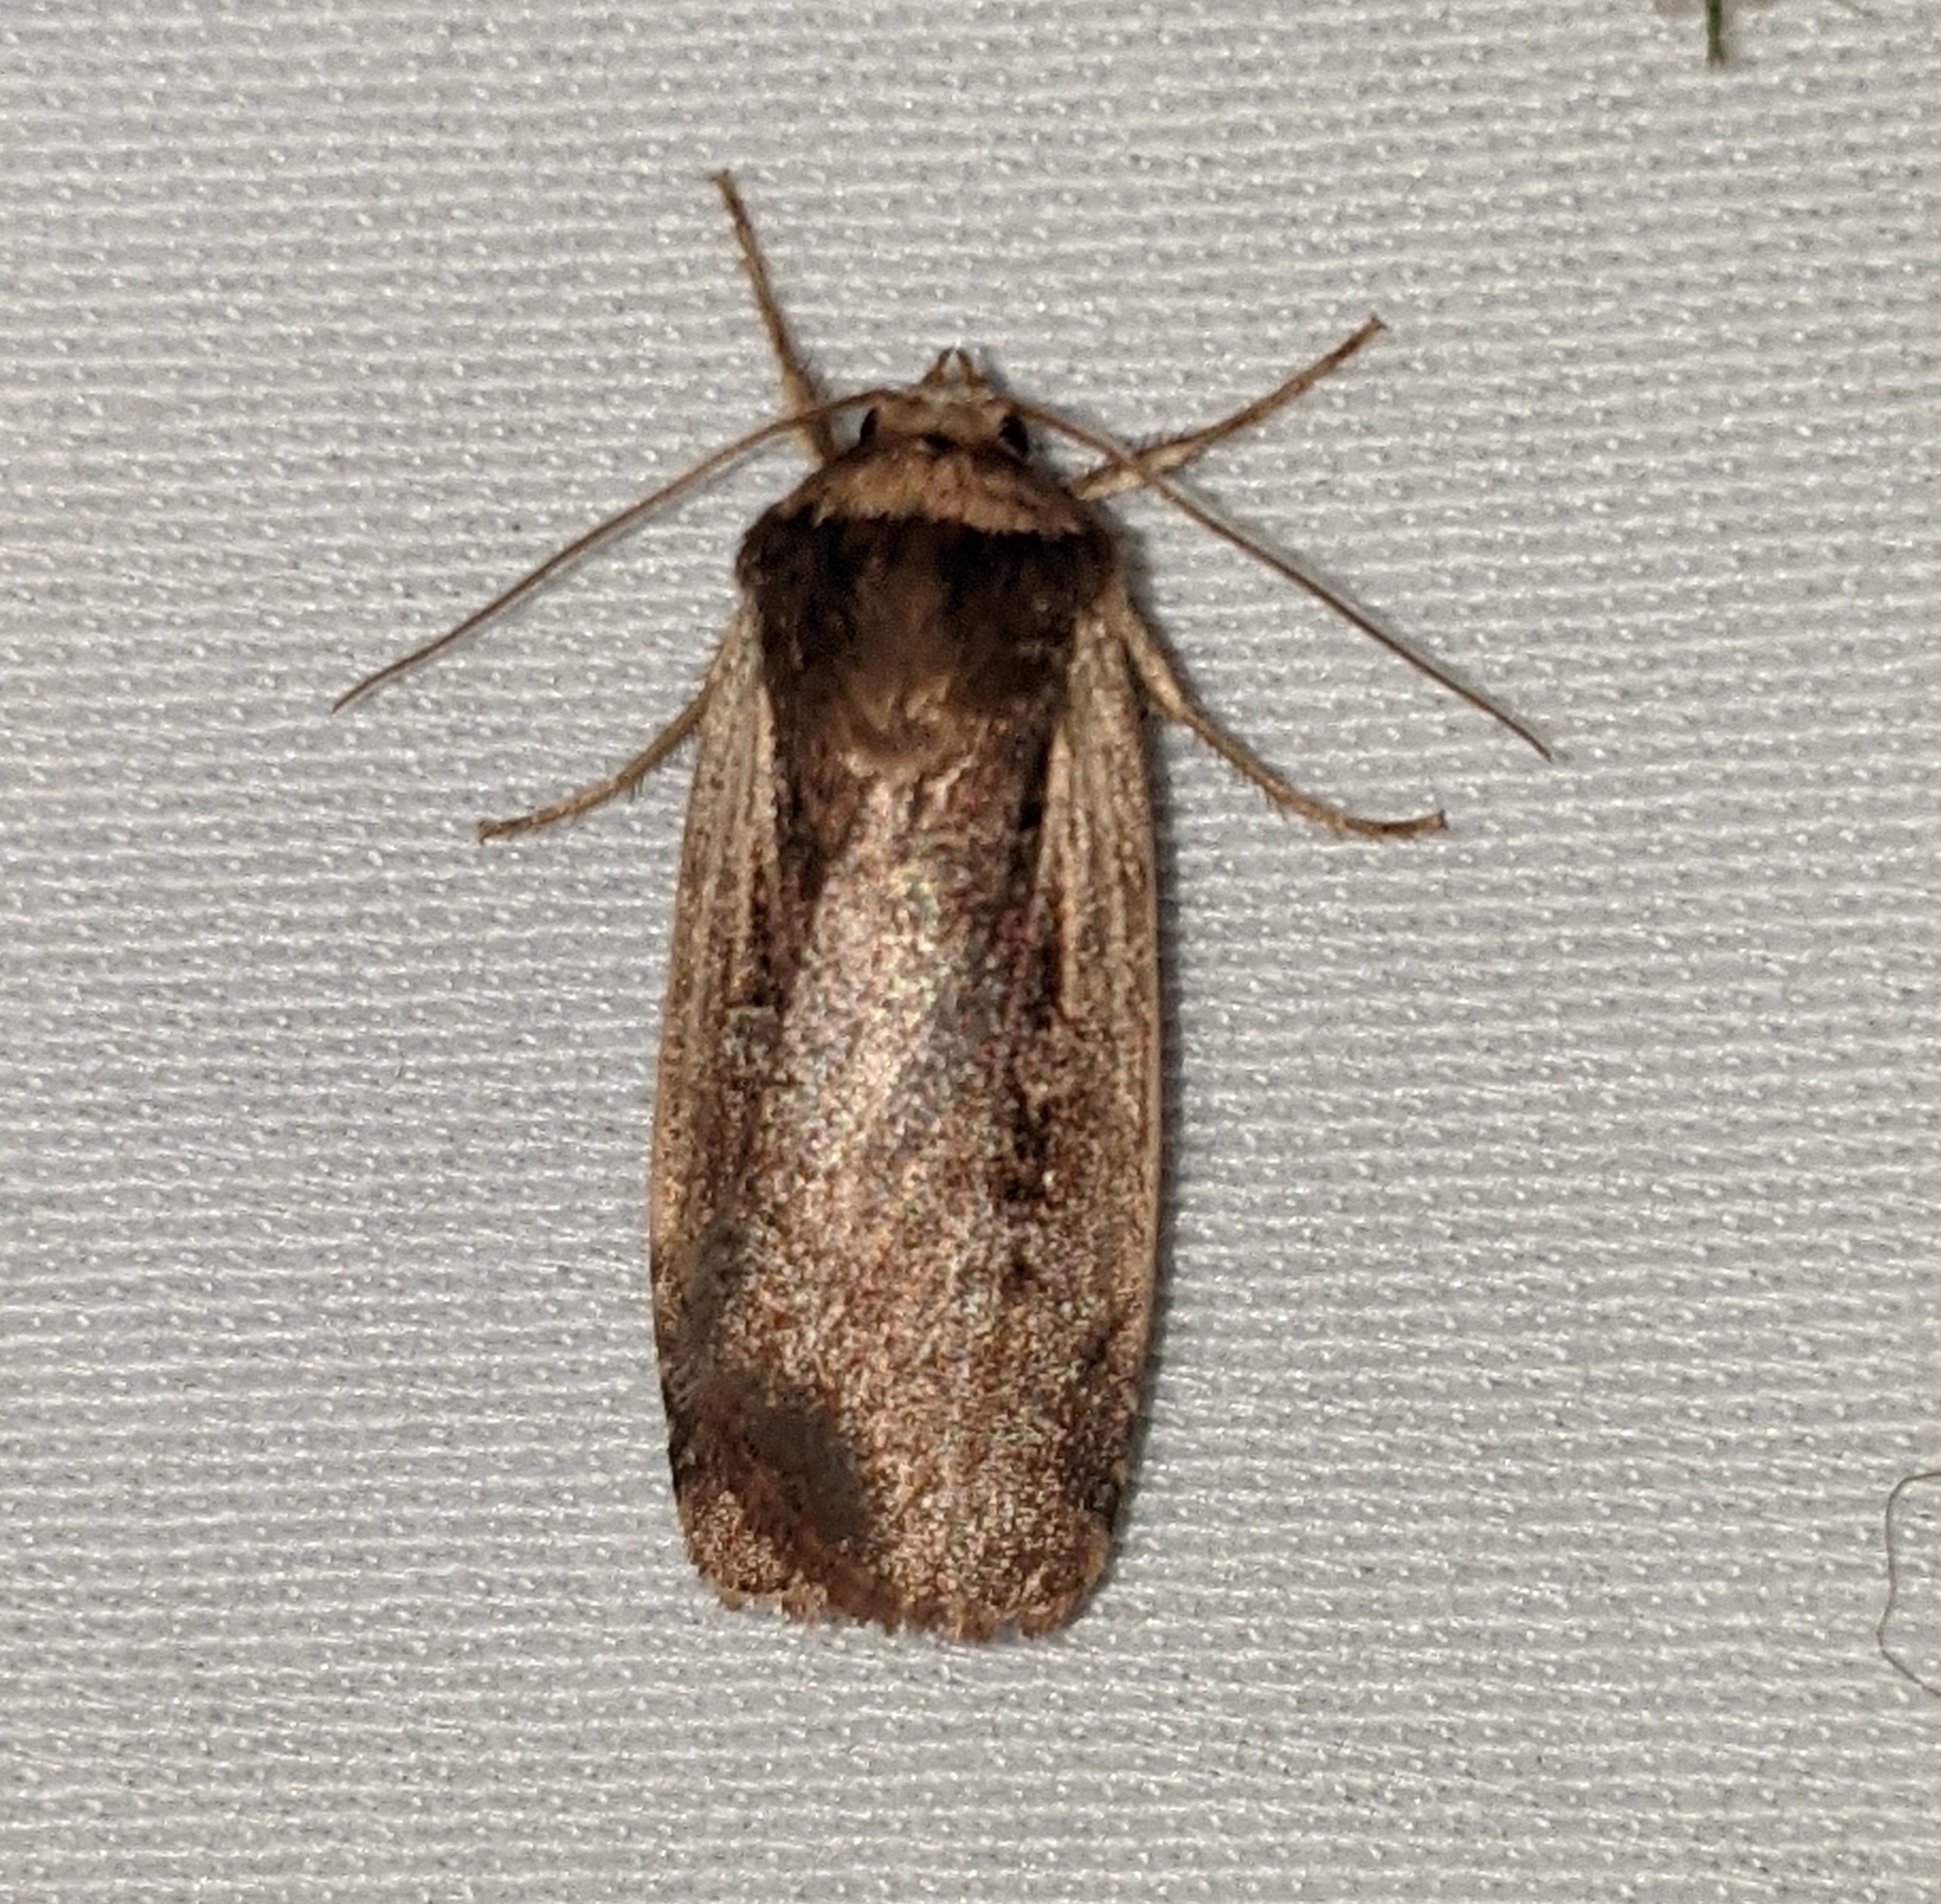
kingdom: Animalia
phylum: Arthropoda
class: Insecta
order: Lepidoptera
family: Noctuidae
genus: Ochropleura
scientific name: Ochropleura implecta
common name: Flame-shouldered dart
